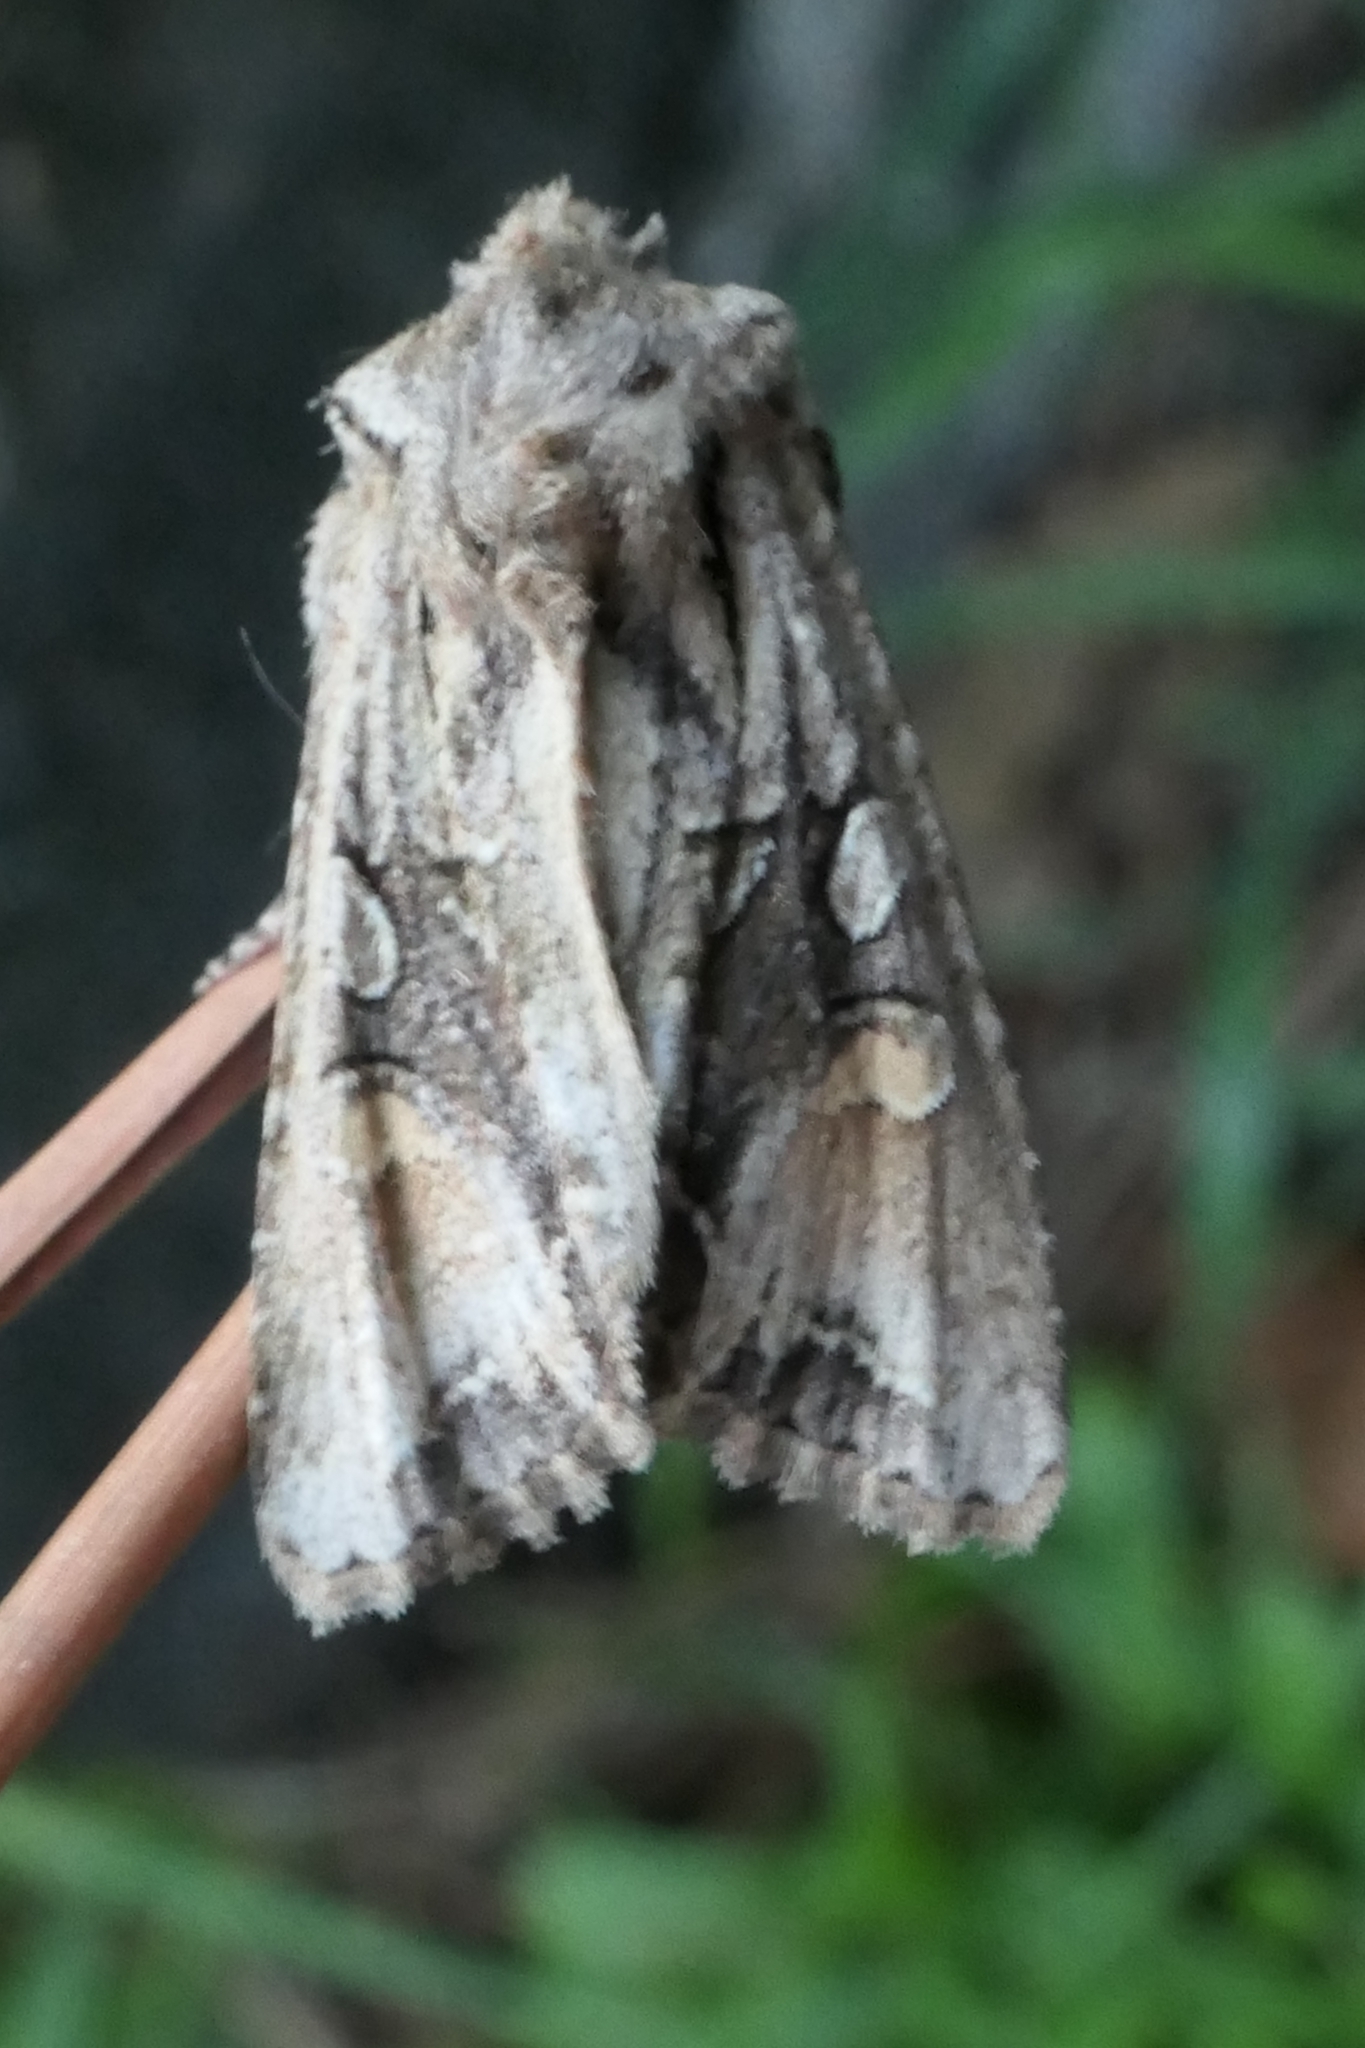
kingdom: Animalia
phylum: Arthropoda
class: Insecta
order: Lepidoptera
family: Noctuidae
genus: Ichneutica
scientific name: Ichneutica
